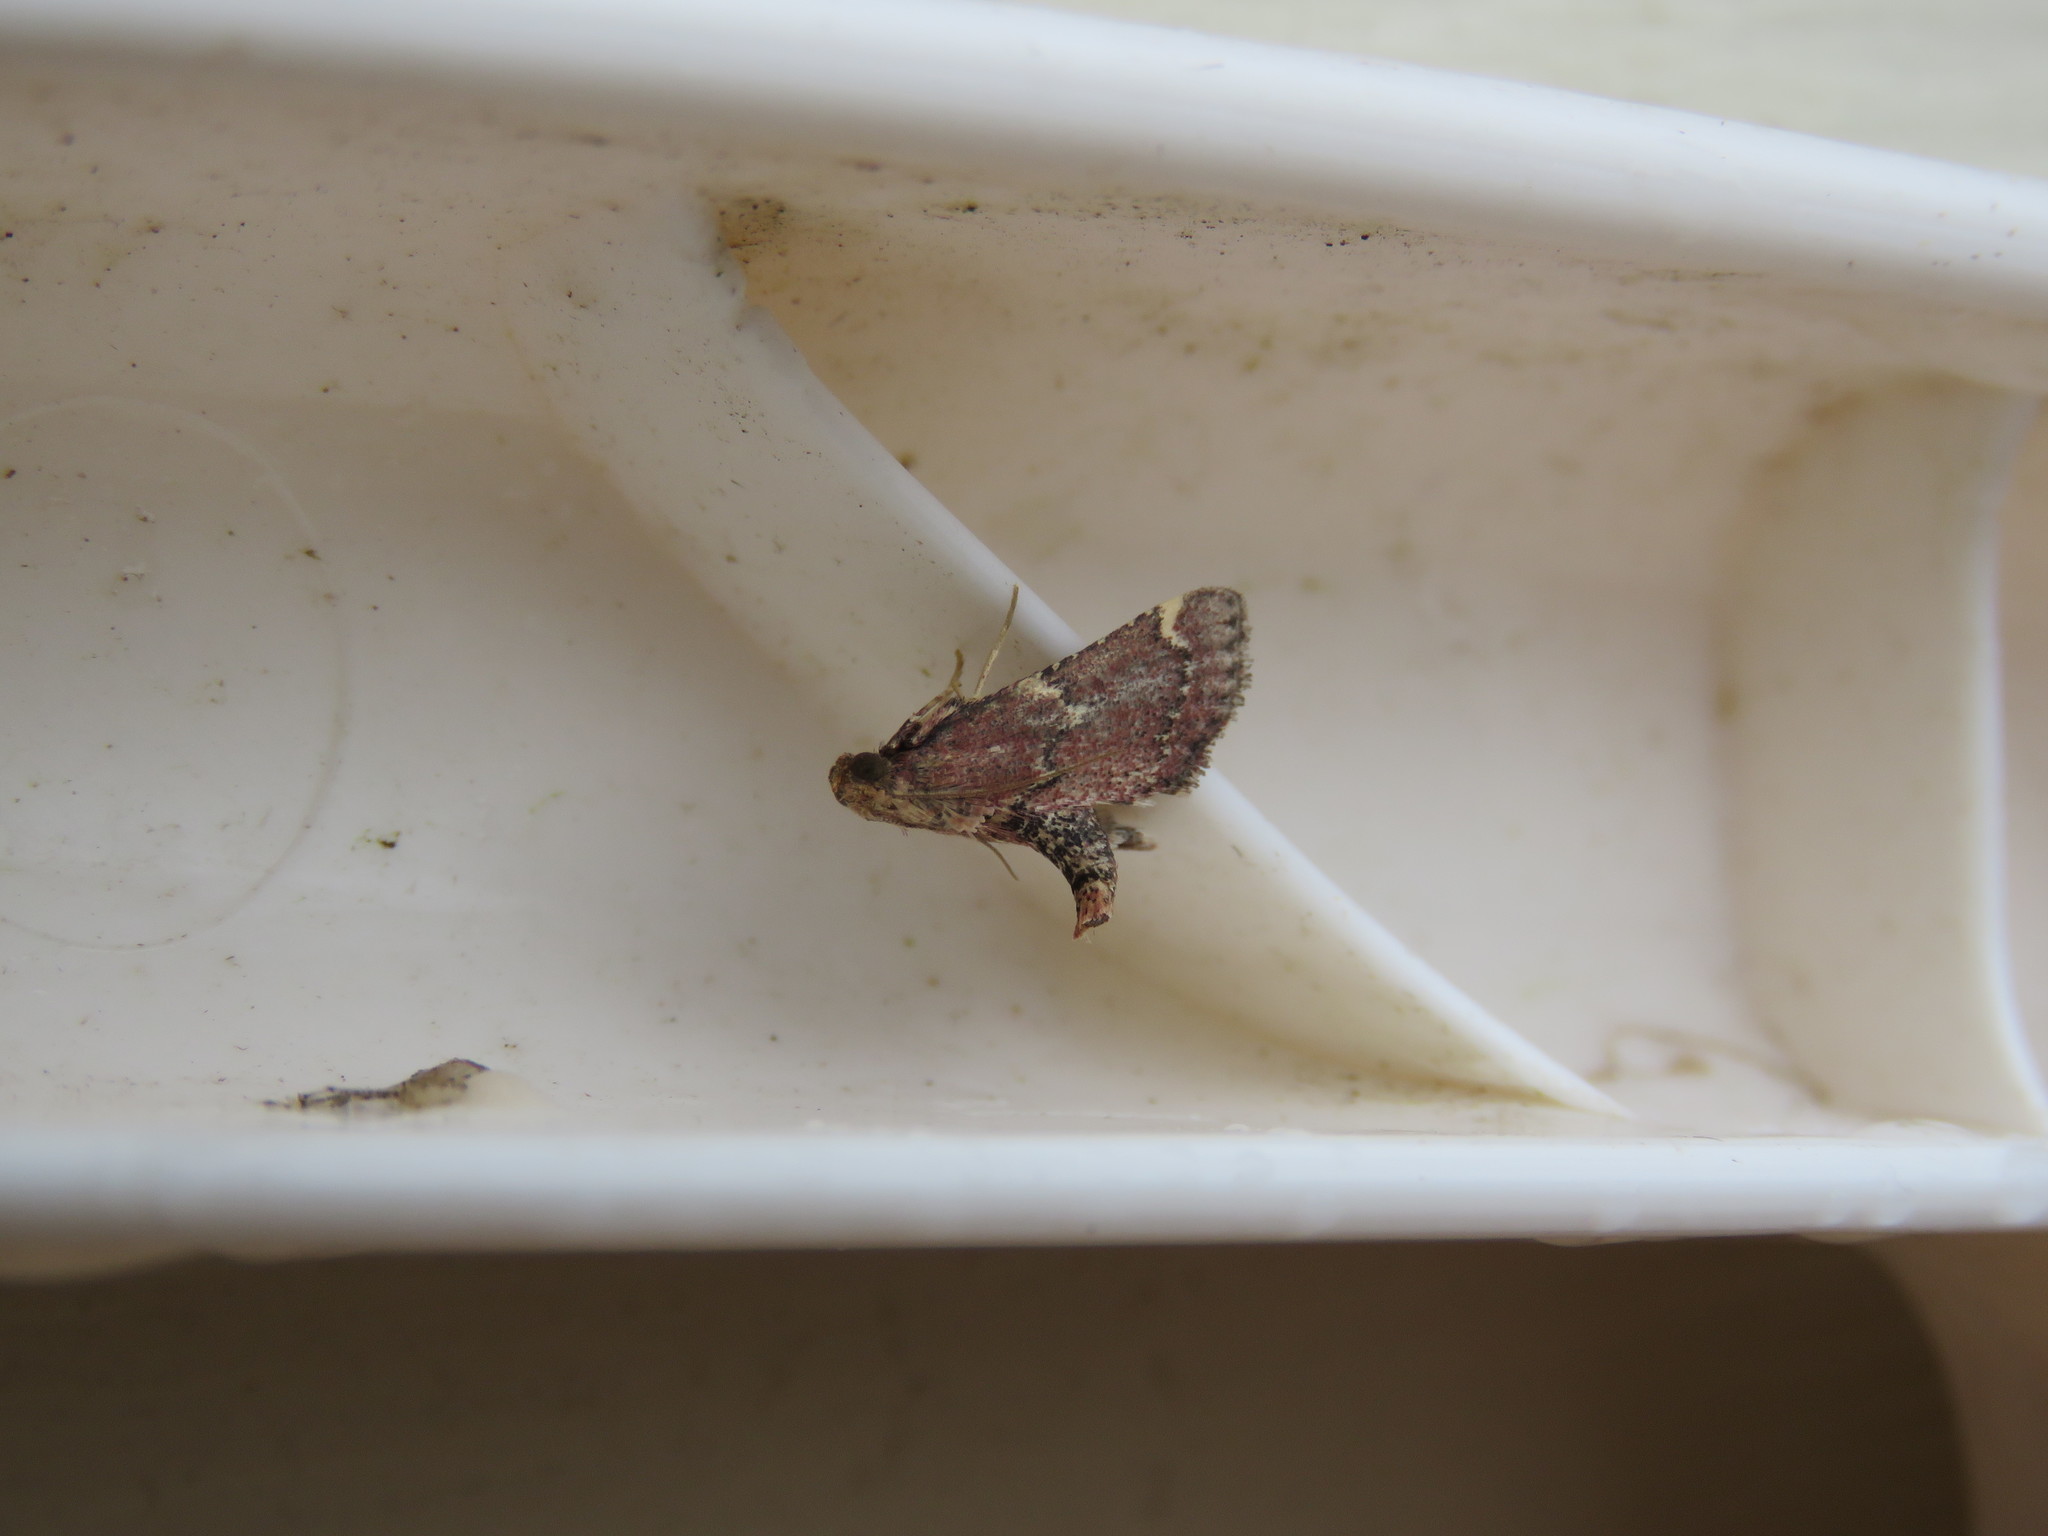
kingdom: Animalia
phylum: Arthropoda
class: Insecta
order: Lepidoptera
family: Pyralidae
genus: Hypsopygia
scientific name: Hypsopygia intermedialis
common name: Red-shawled moth
